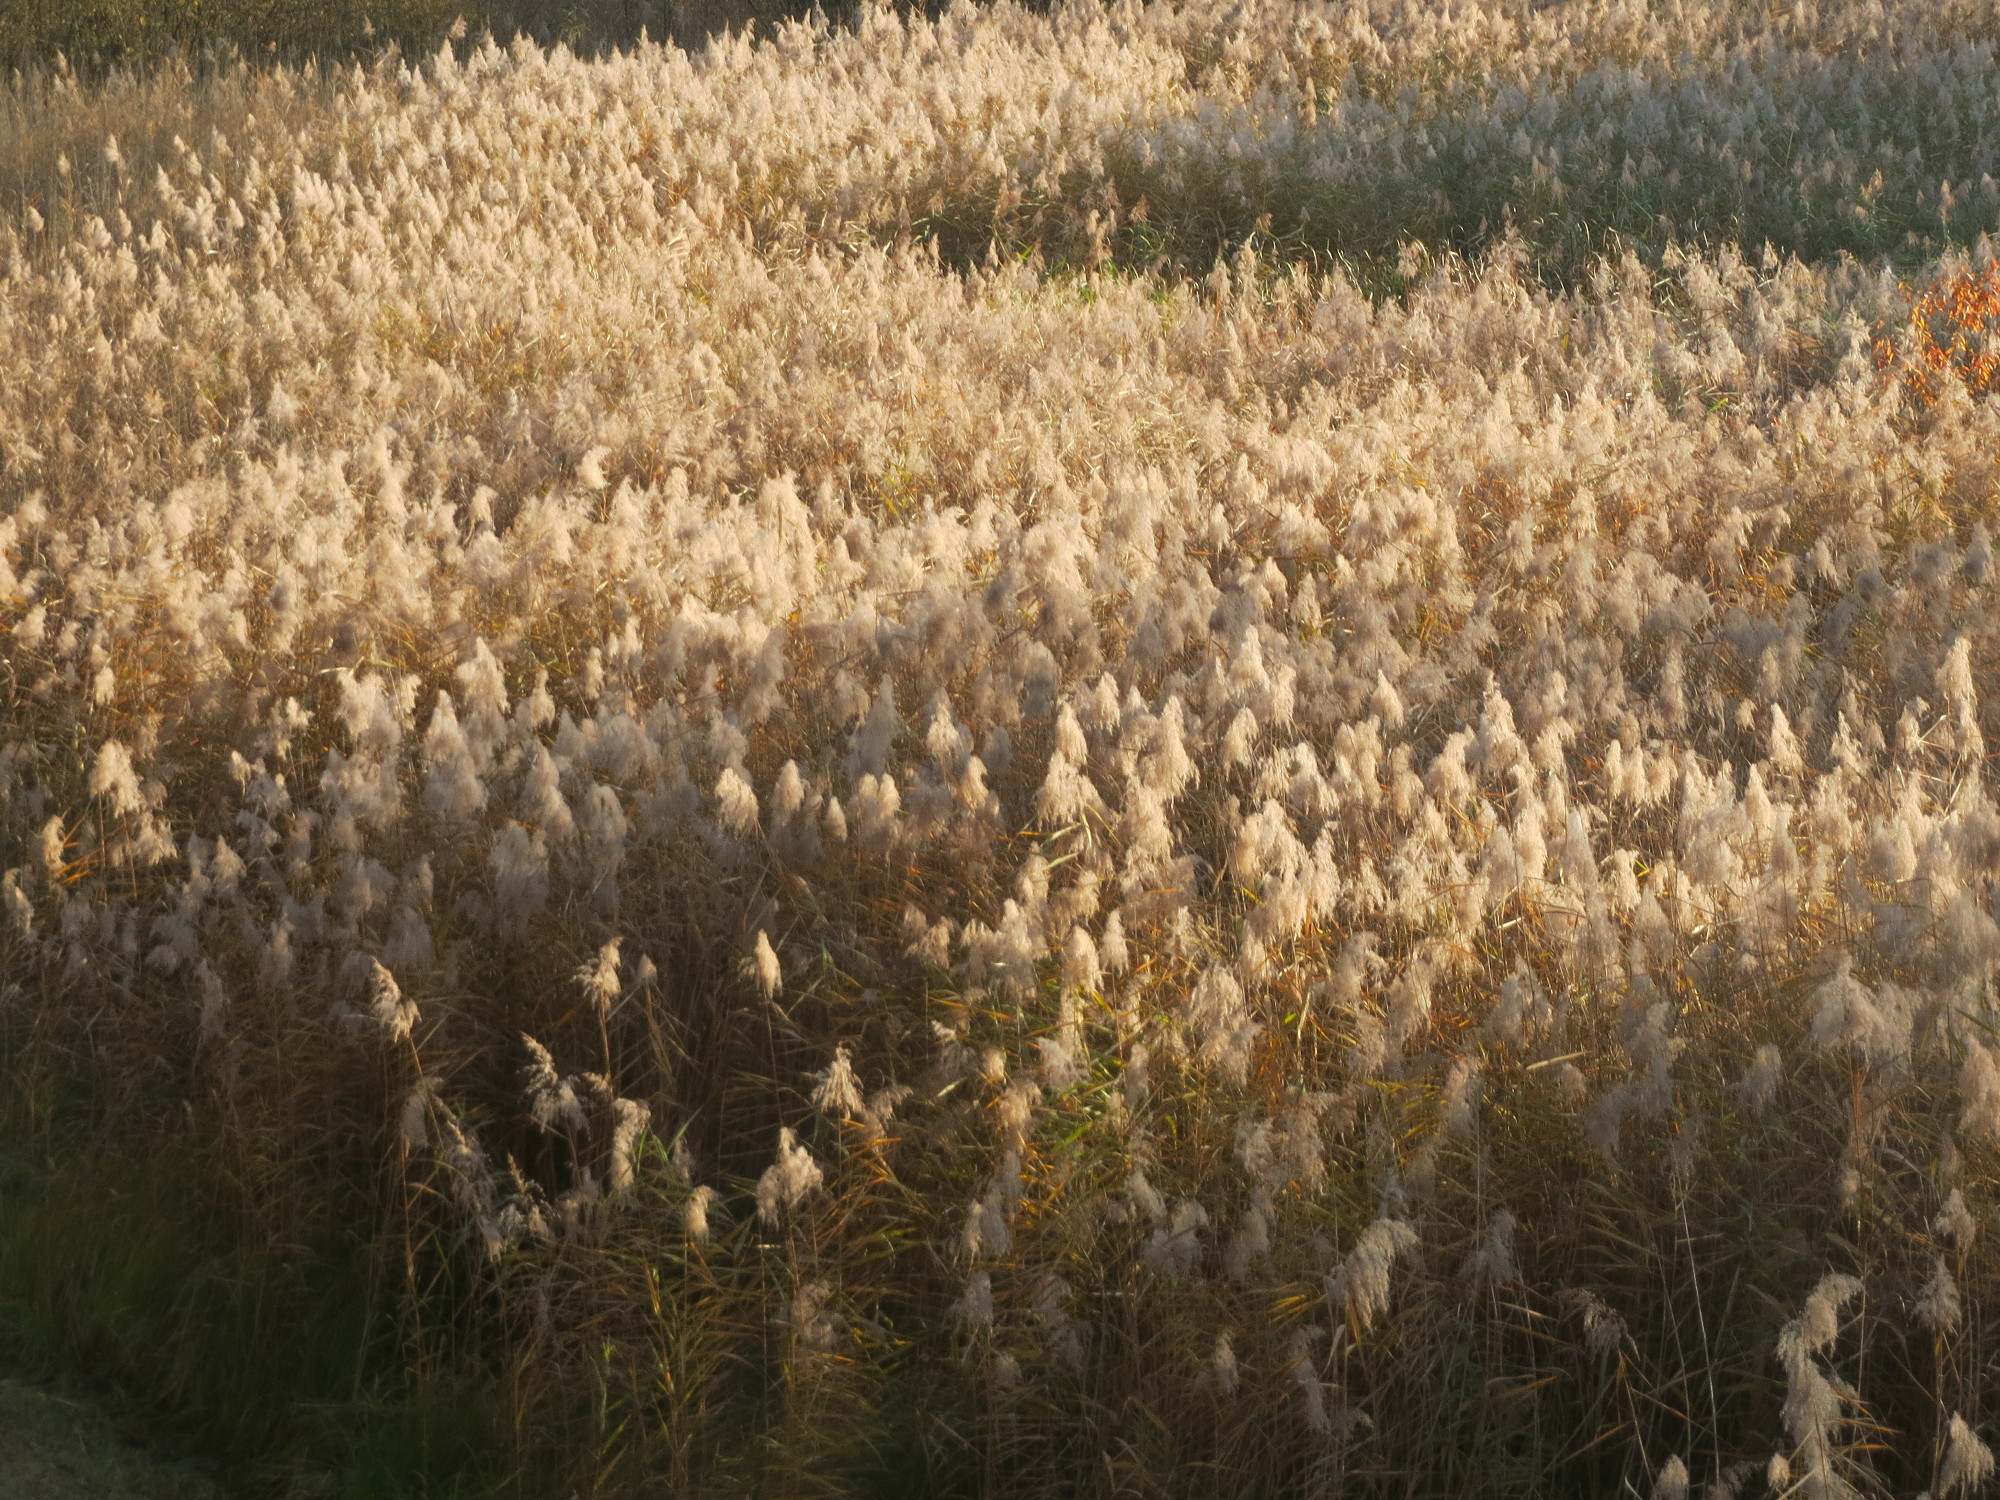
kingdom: Plantae
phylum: Tracheophyta
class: Liliopsida
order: Poales
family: Poaceae
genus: Phragmites
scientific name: Phragmites australis
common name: Common reed
